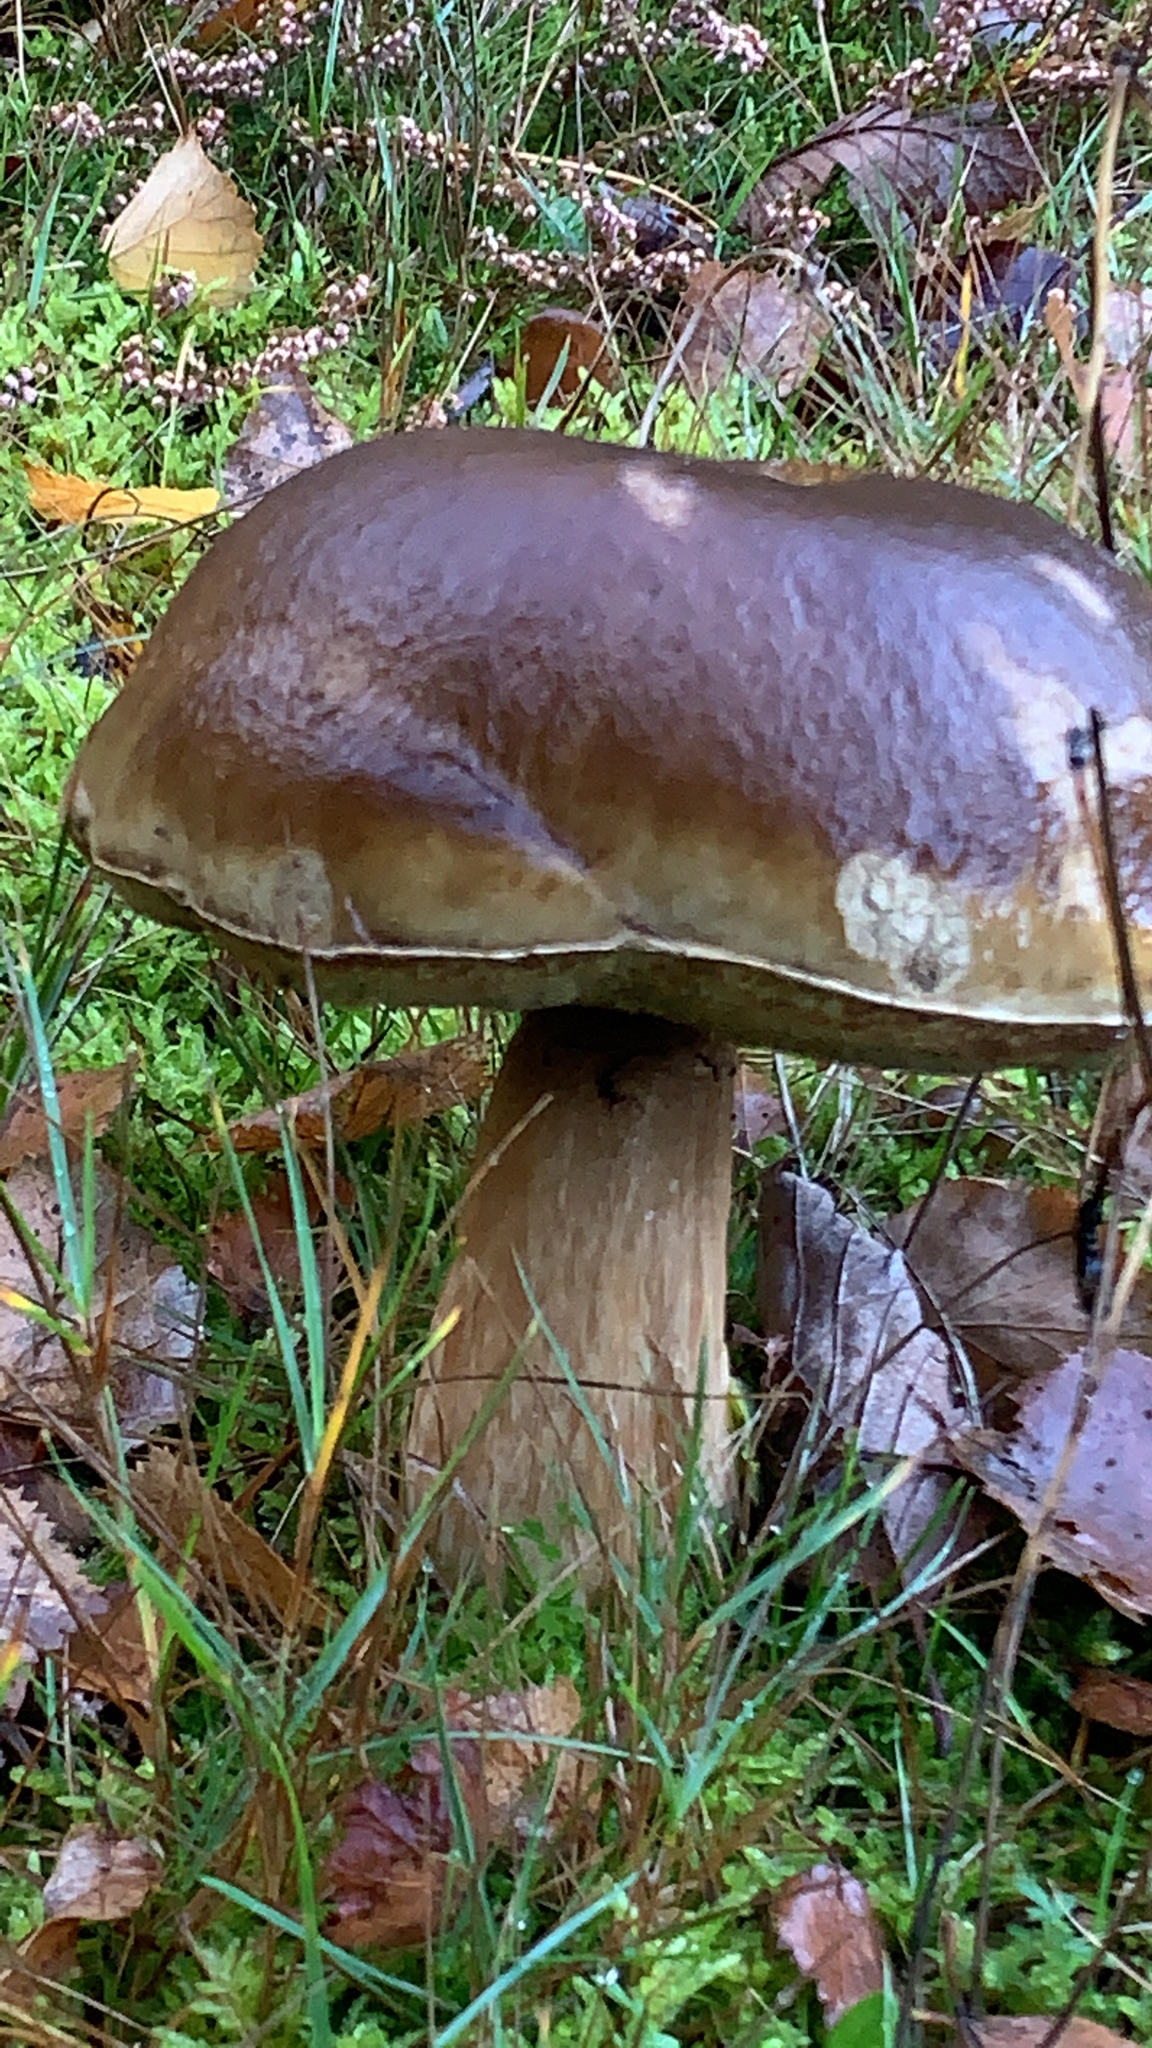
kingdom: Fungi
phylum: Basidiomycota
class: Agaricomycetes
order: Boletales
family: Boletaceae
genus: Boletus
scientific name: Boletus edulis
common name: Cep
